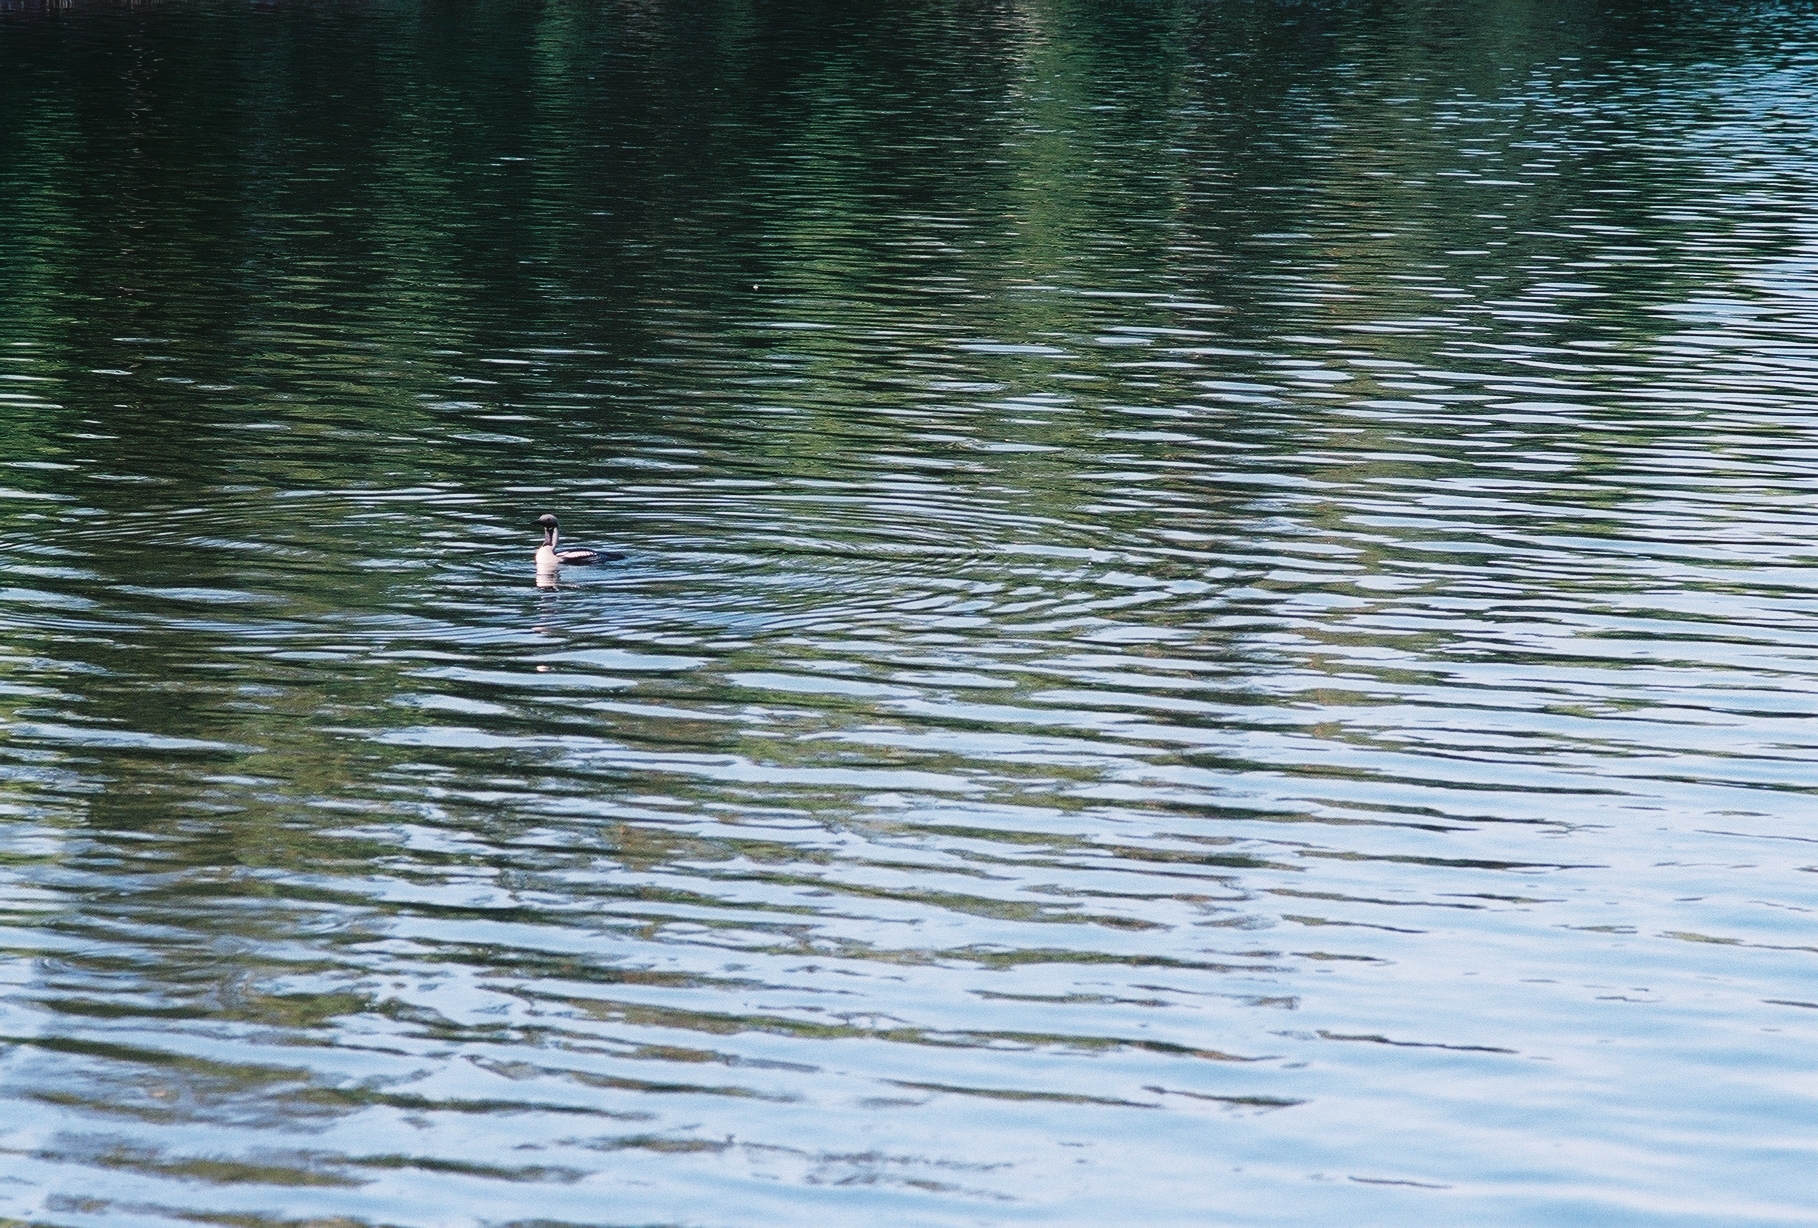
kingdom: Animalia
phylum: Chordata
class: Aves
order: Gaviiformes
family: Gaviidae
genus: Gavia
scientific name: Gavia arctica
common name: Black-throated loon
